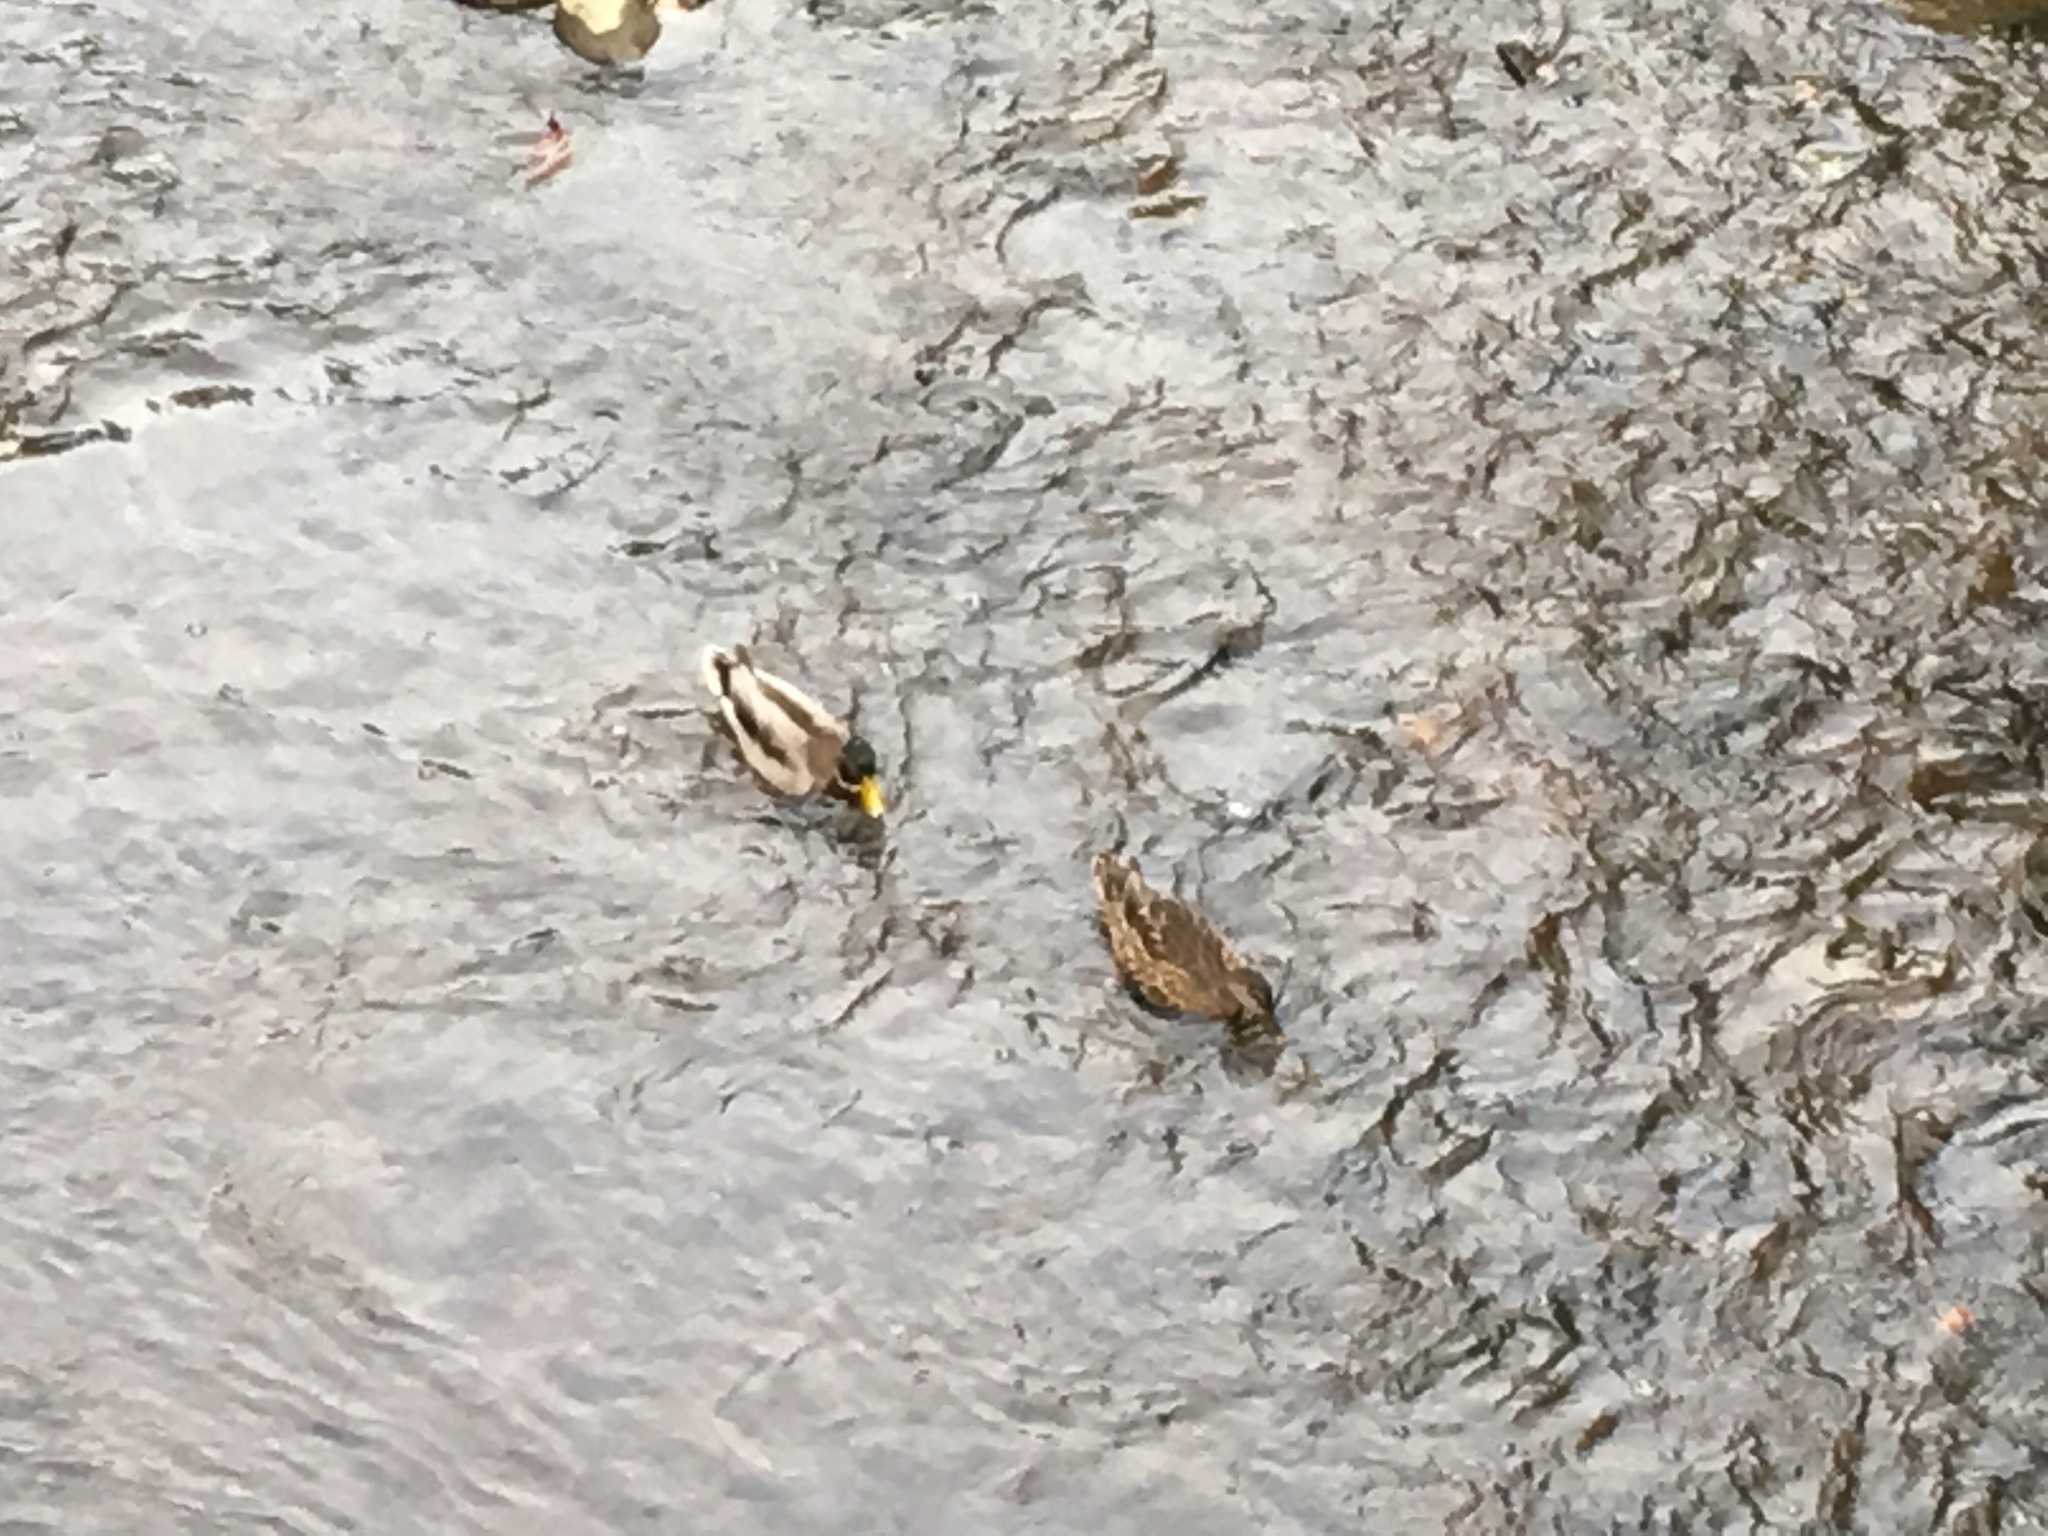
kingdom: Animalia
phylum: Chordata
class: Aves
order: Anseriformes
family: Anatidae
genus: Anas
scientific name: Anas platyrhynchos
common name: Mallard
